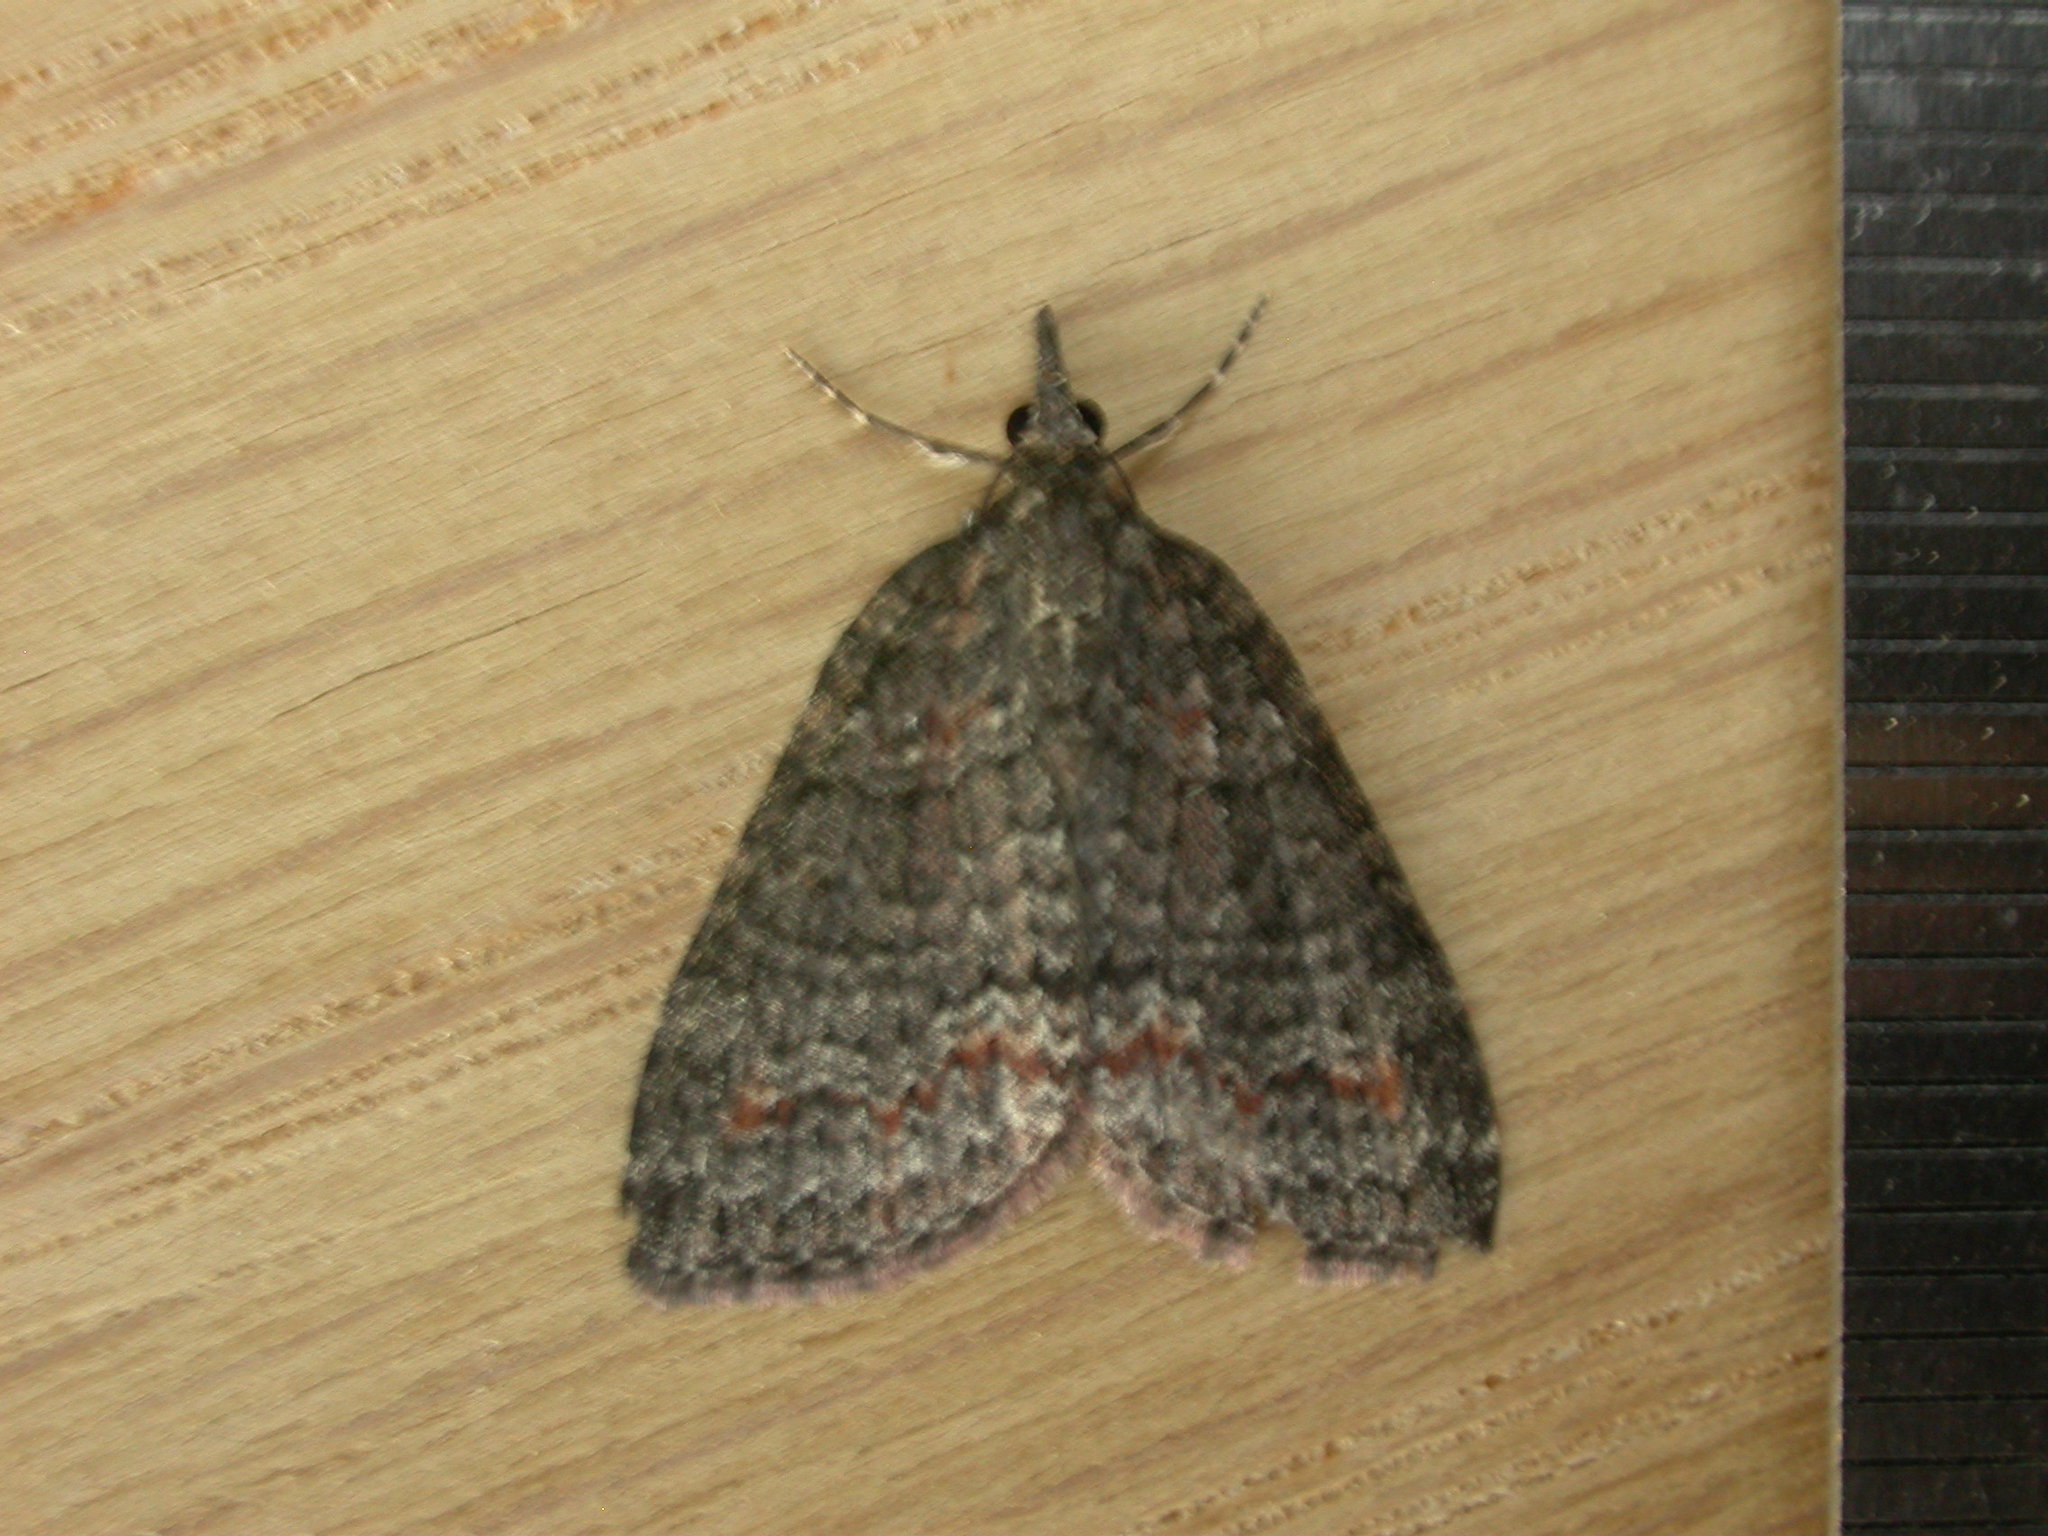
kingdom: Animalia
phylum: Arthropoda
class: Insecta
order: Lepidoptera
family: Geometridae
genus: Microdes
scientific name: Microdes squamulata
